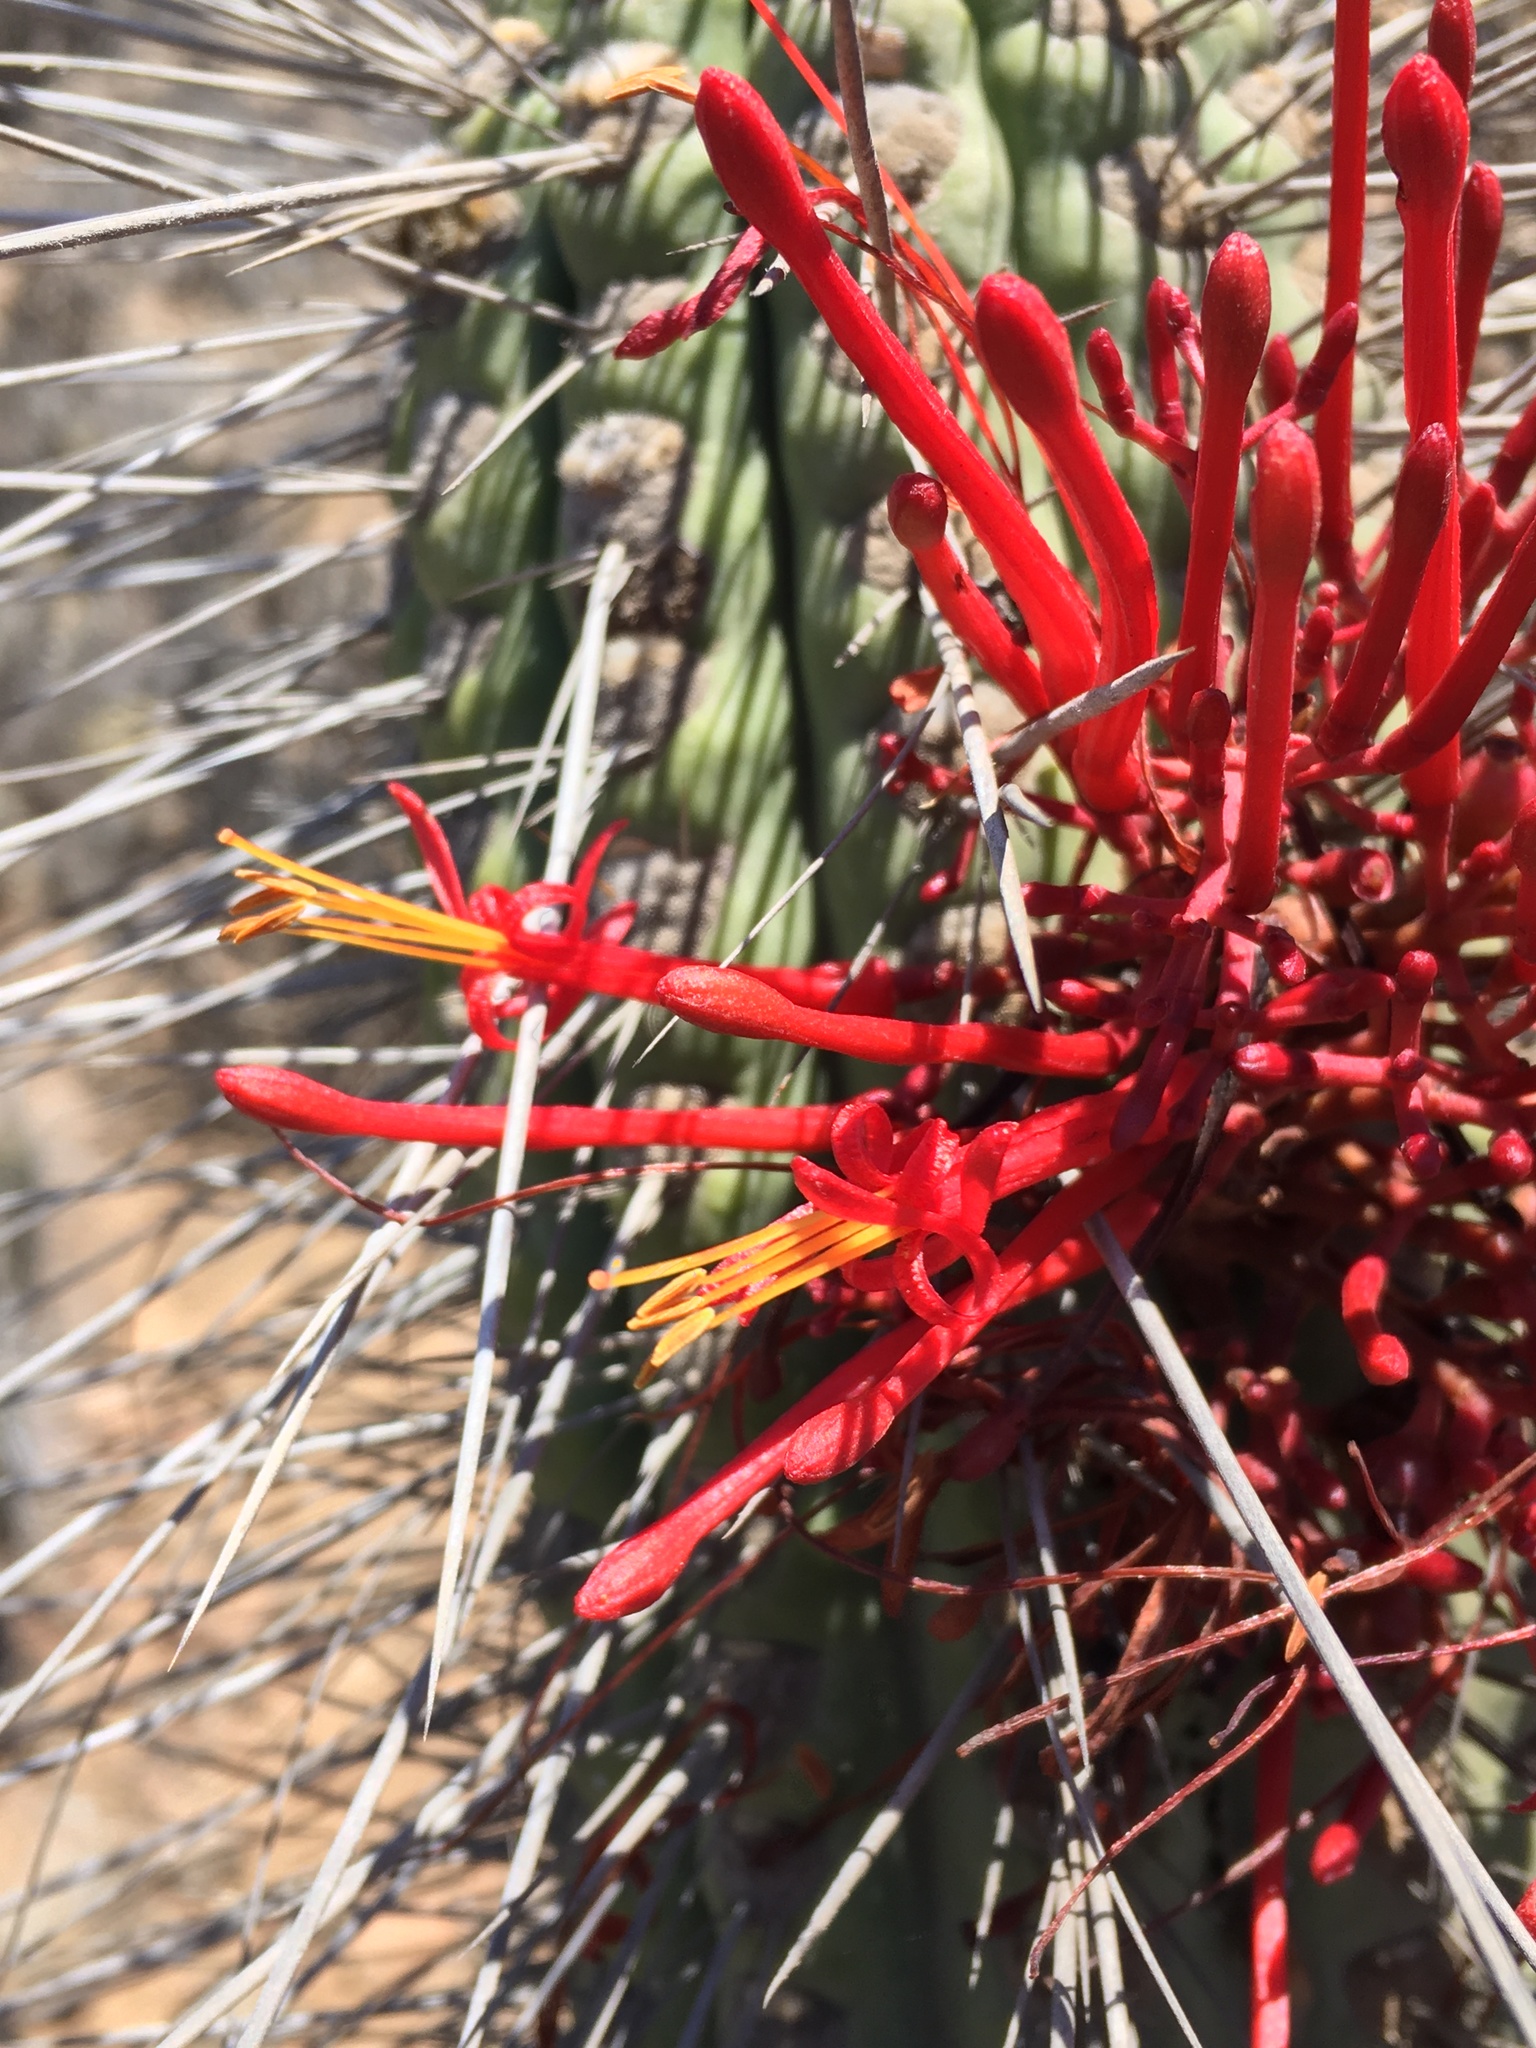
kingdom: Plantae
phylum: Tracheophyta
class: Magnoliopsida
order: Santalales
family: Loranthaceae
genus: Tristerix
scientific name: Tristerix aphyllus
